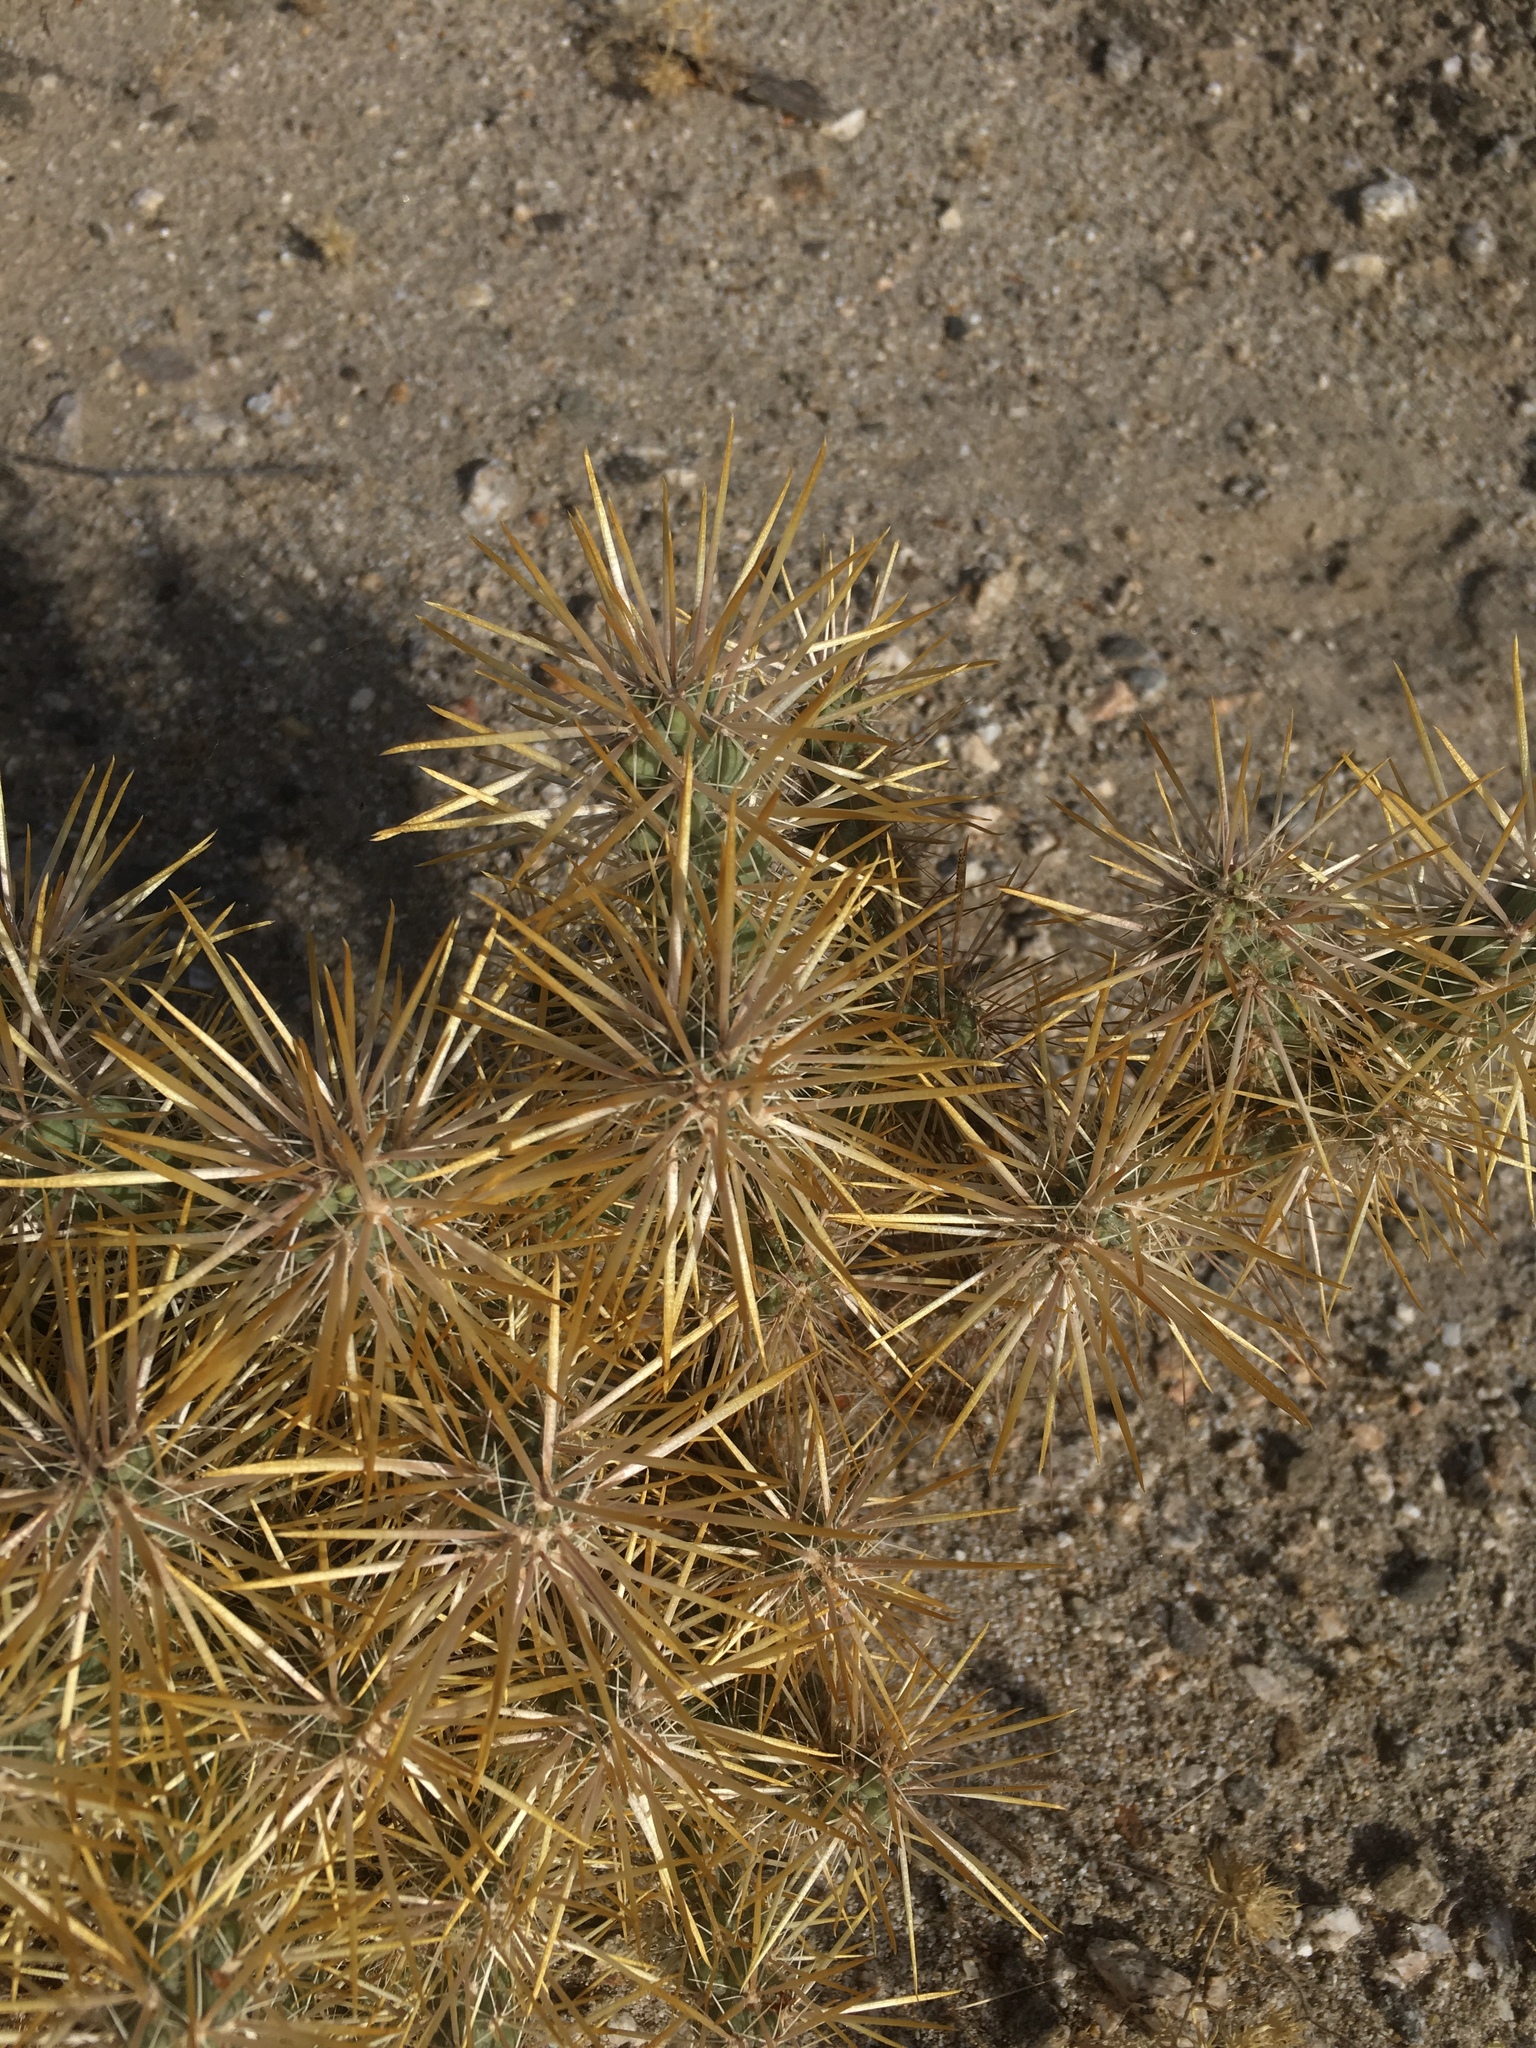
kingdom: Plantae
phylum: Tracheophyta
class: Magnoliopsida
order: Caryophyllales
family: Cactaceae
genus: Cylindropuntia
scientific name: Cylindropuntia echinocarpa
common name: Ground cholla
